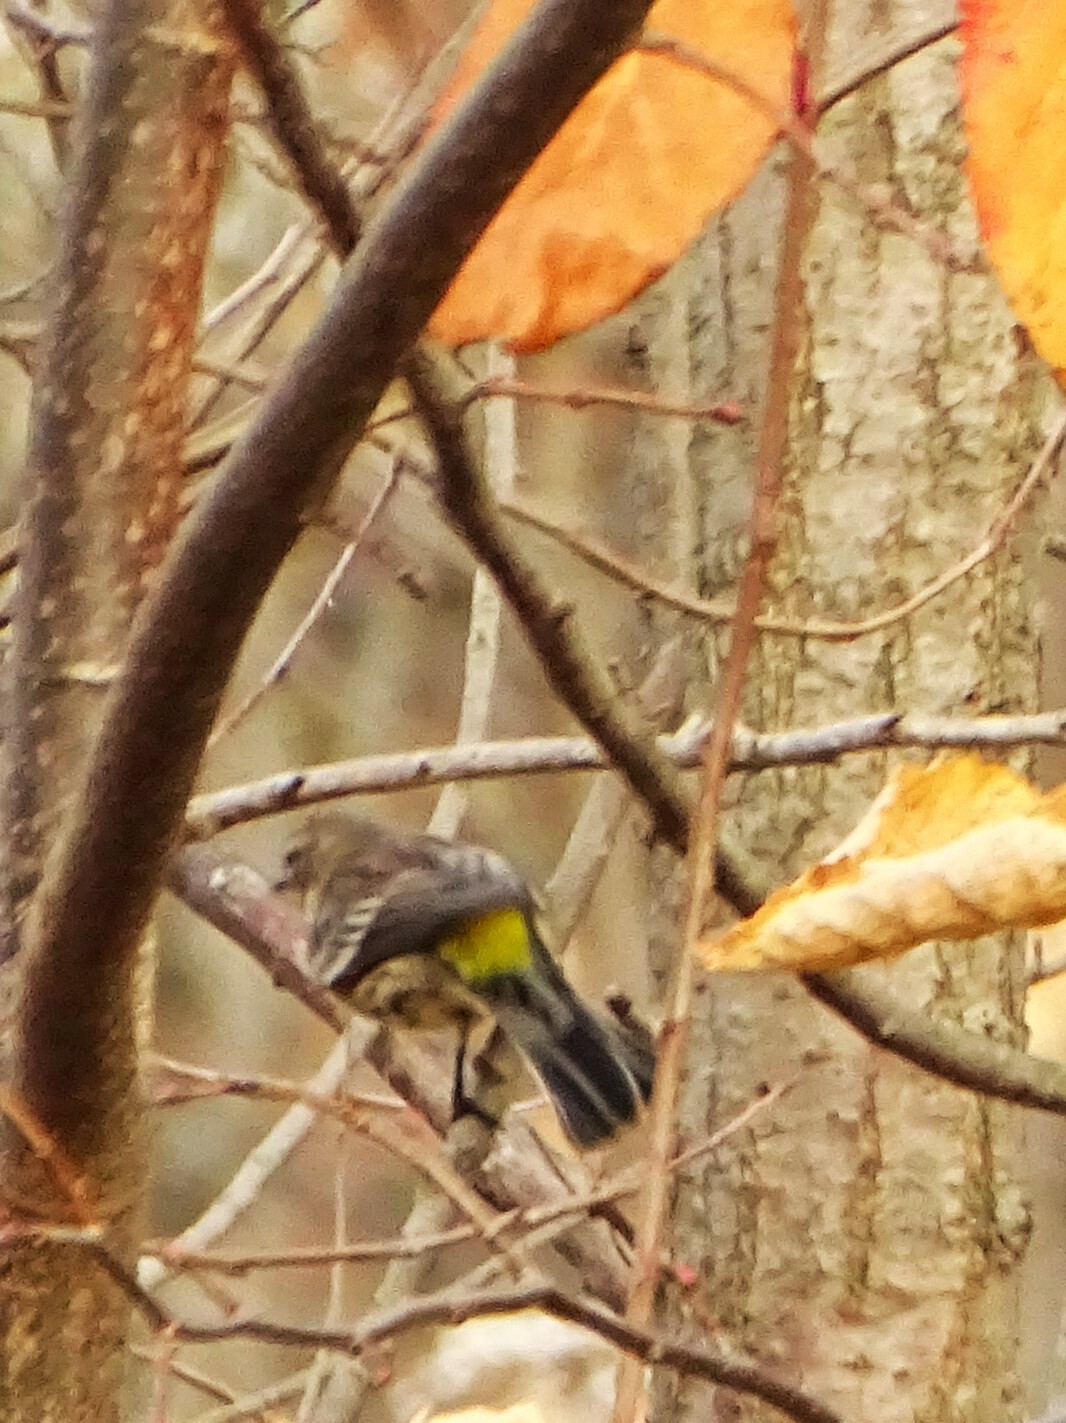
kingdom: Animalia
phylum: Chordata
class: Aves
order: Passeriformes
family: Parulidae
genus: Setophaga
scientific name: Setophaga coronata
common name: Myrtle warbler
